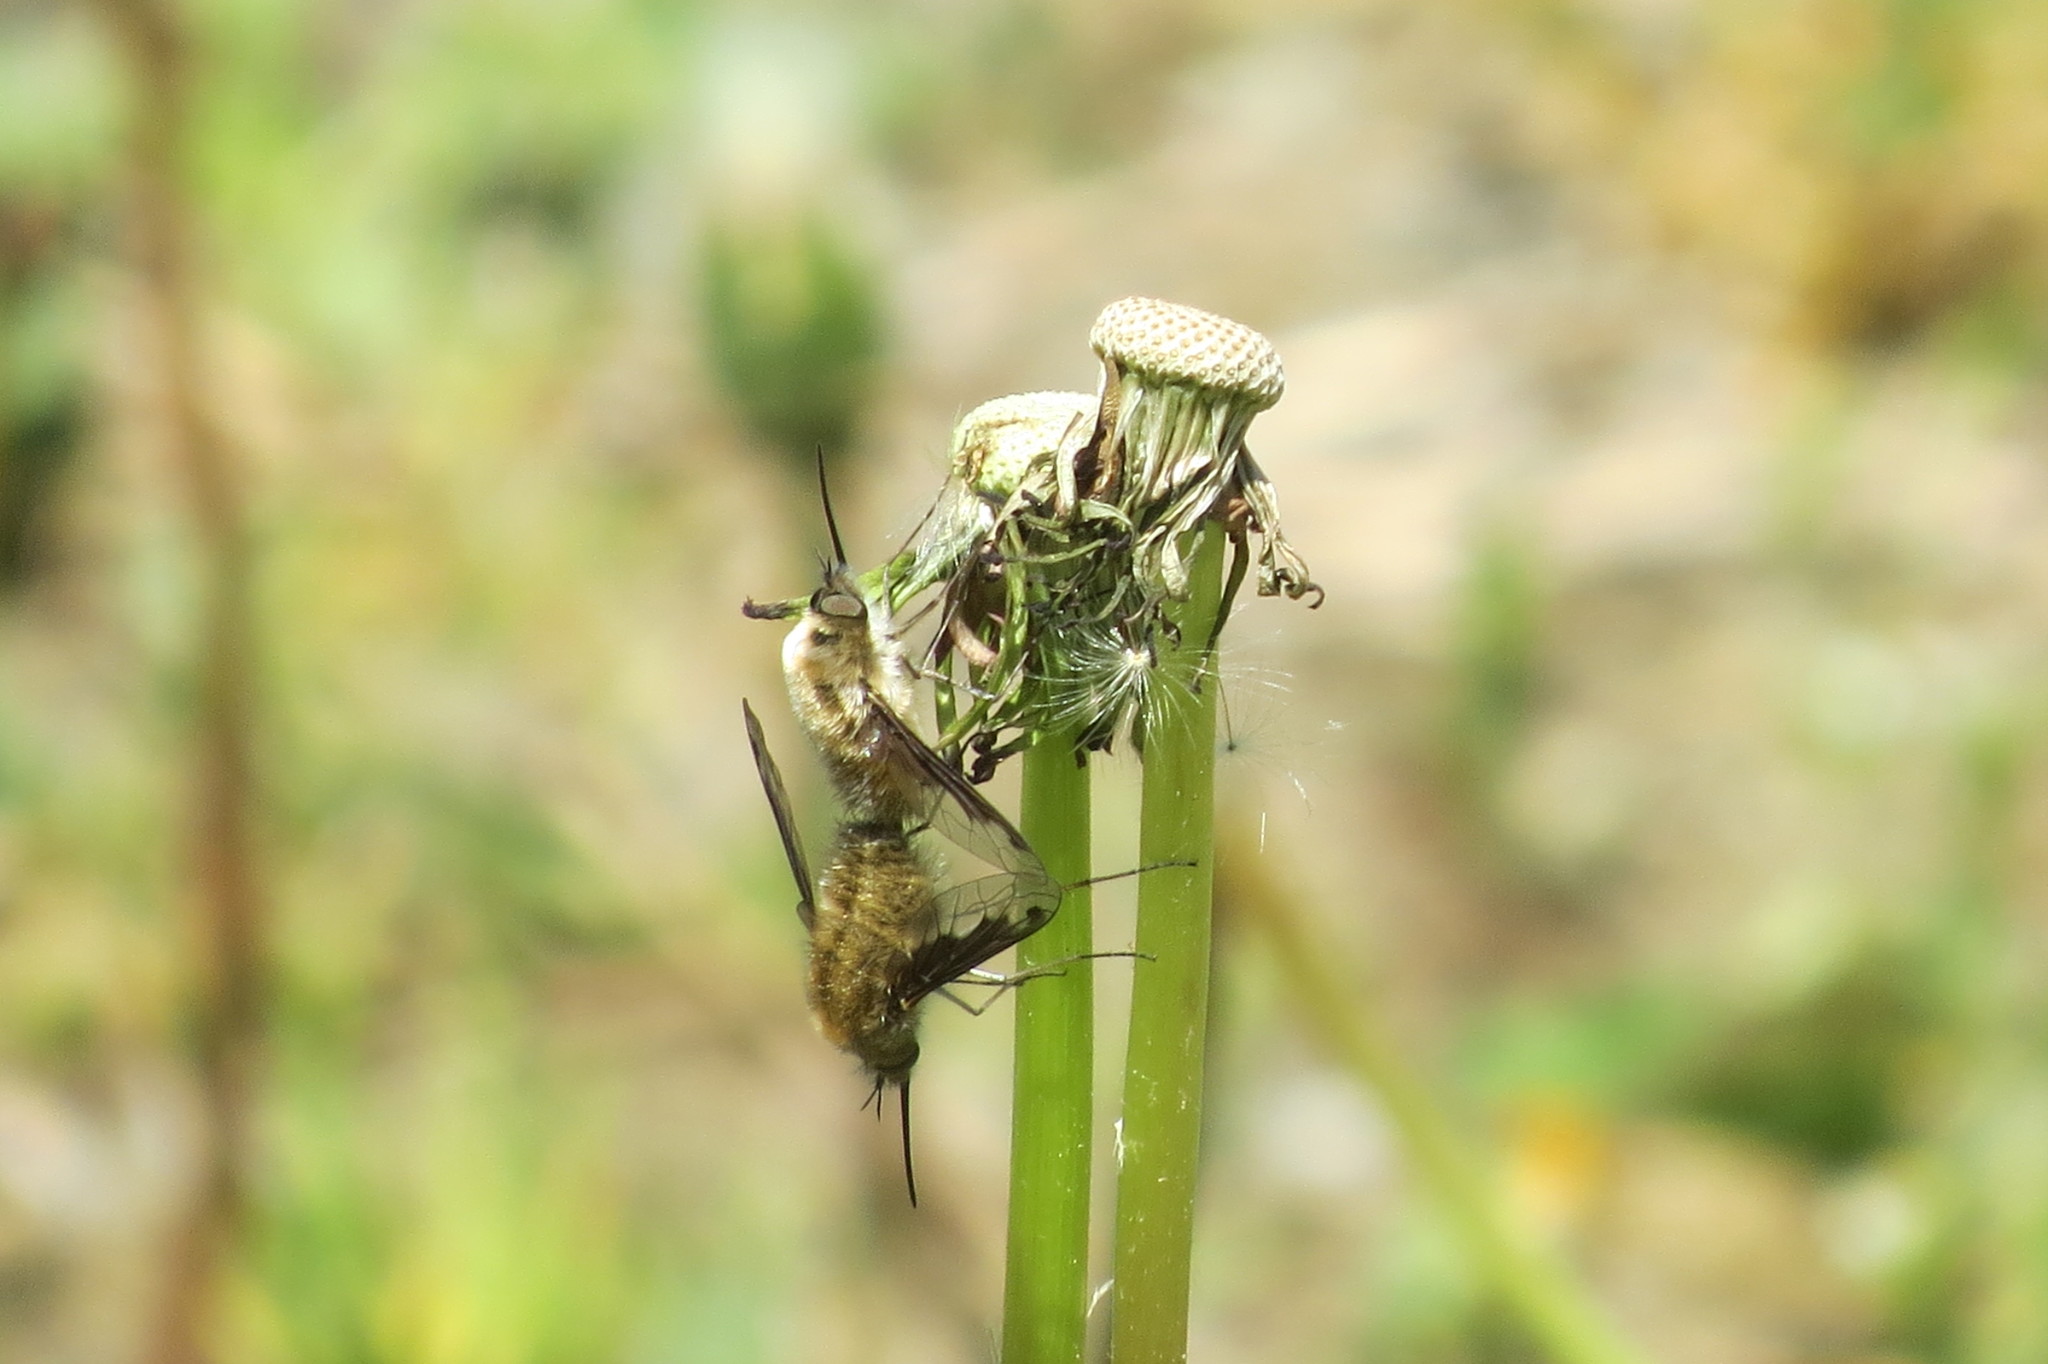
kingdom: Animalia
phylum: Arthropoda
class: Insecta
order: Diptera
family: Bombyliidae
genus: Bombylius
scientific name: Bombylius major
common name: Bee fly
